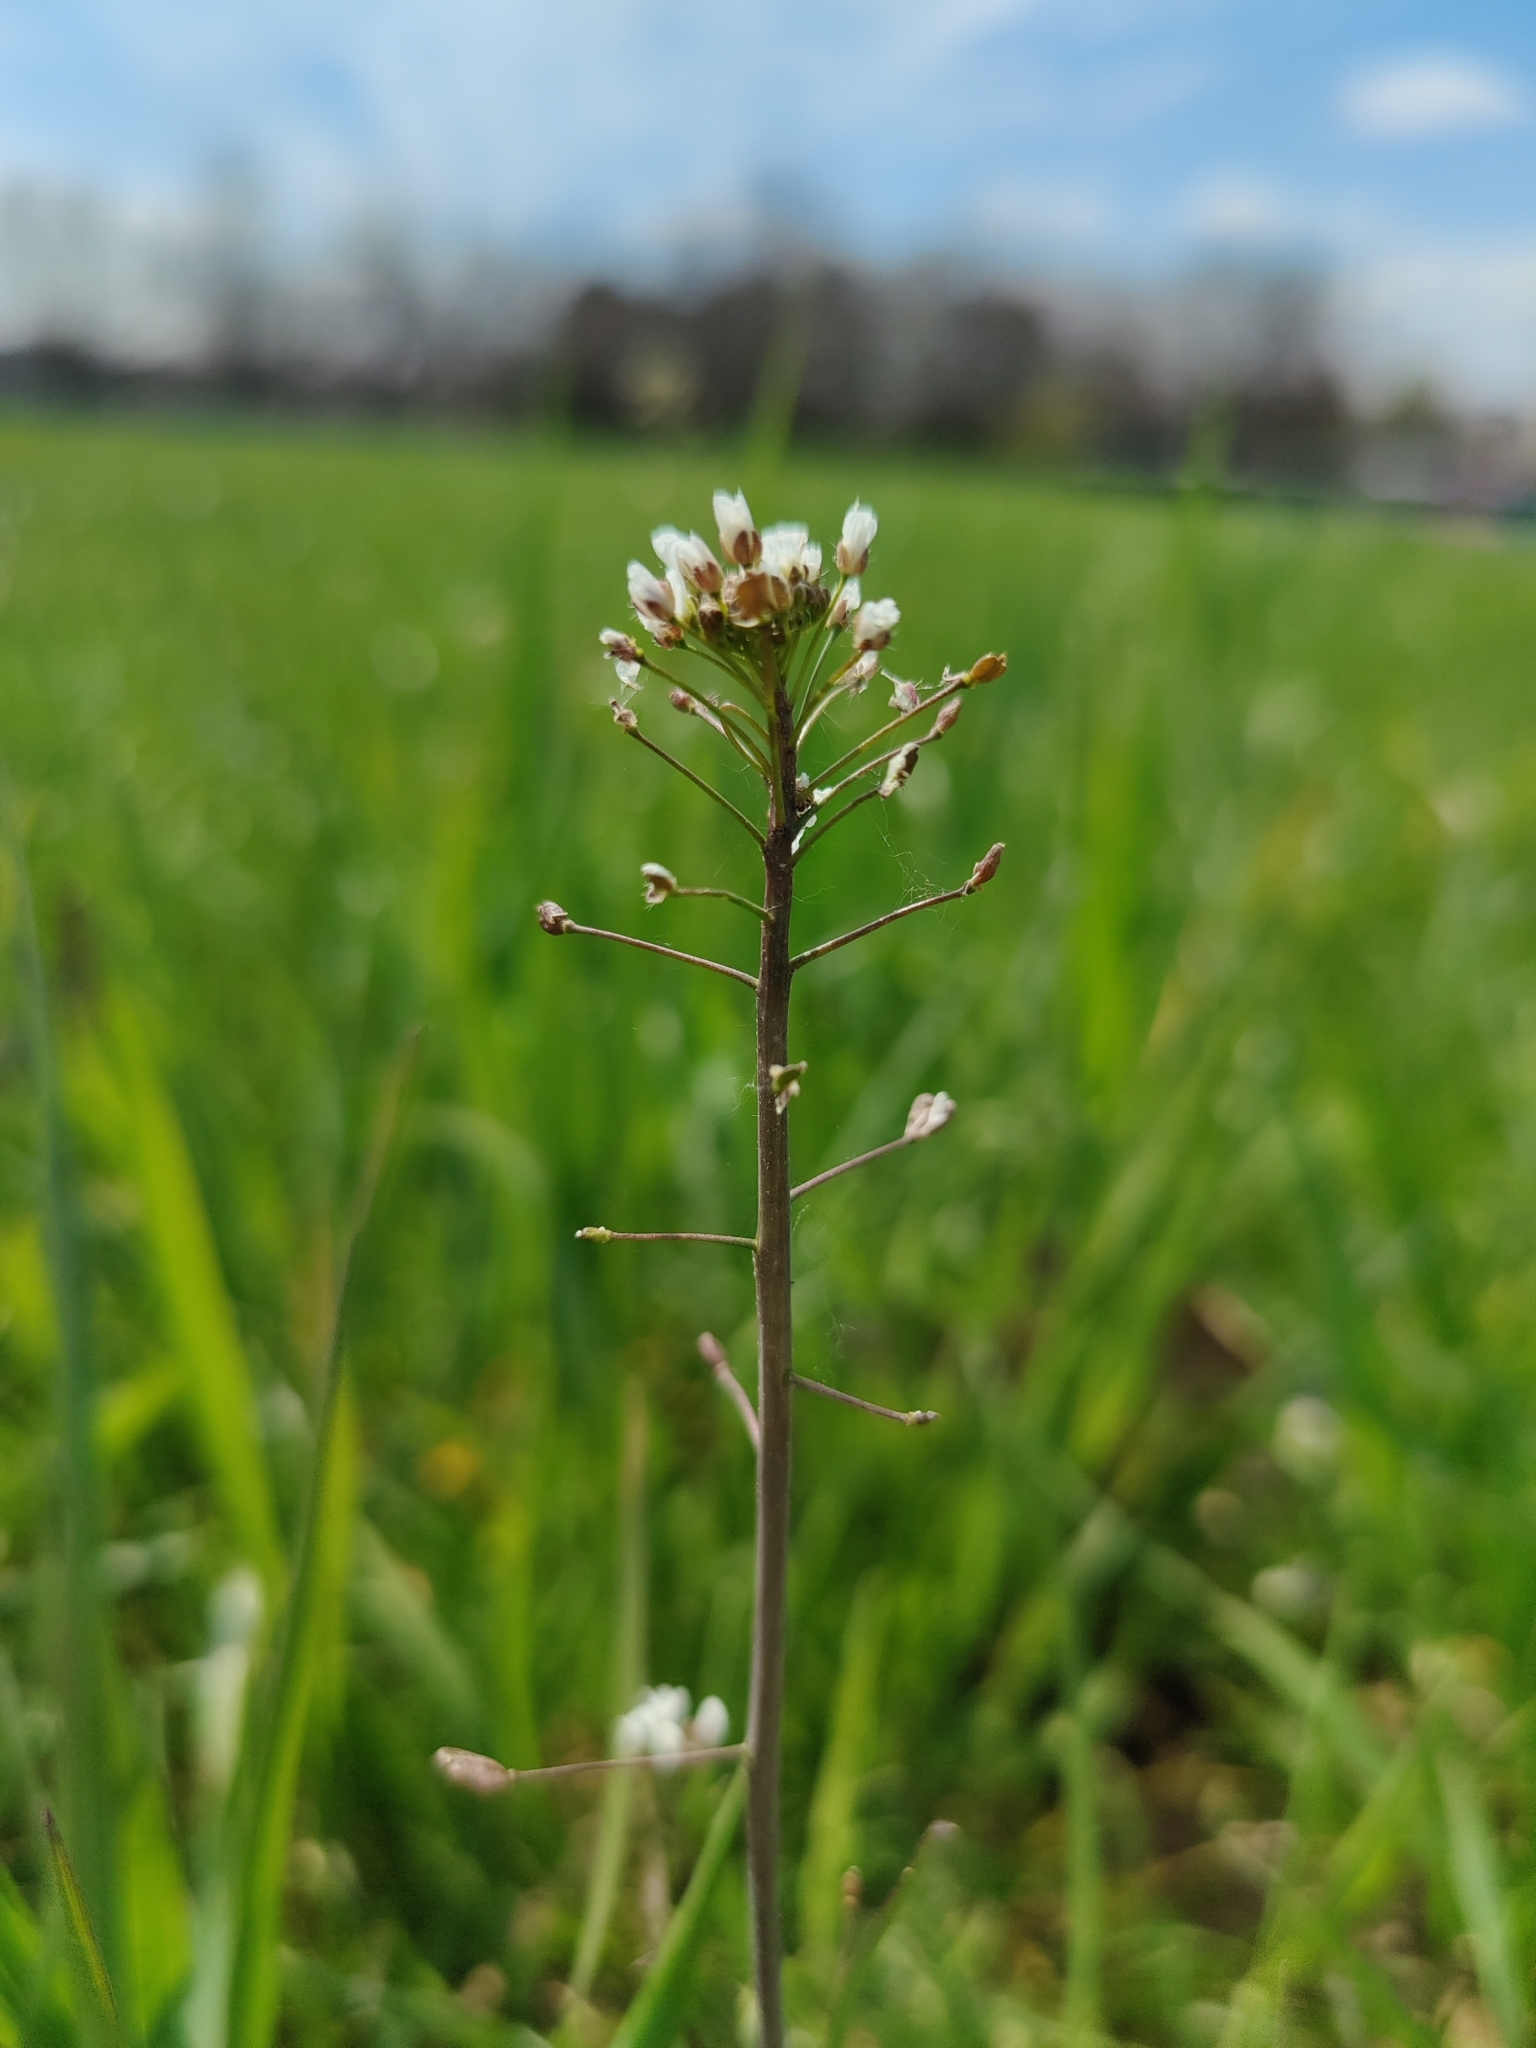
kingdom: Plantae
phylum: Tracheophyta
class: Magnoliopsida
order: Brassicales
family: Brassicaceae
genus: Capsella
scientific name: Capsella bursa-pastoris
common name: Shepherd's purse
